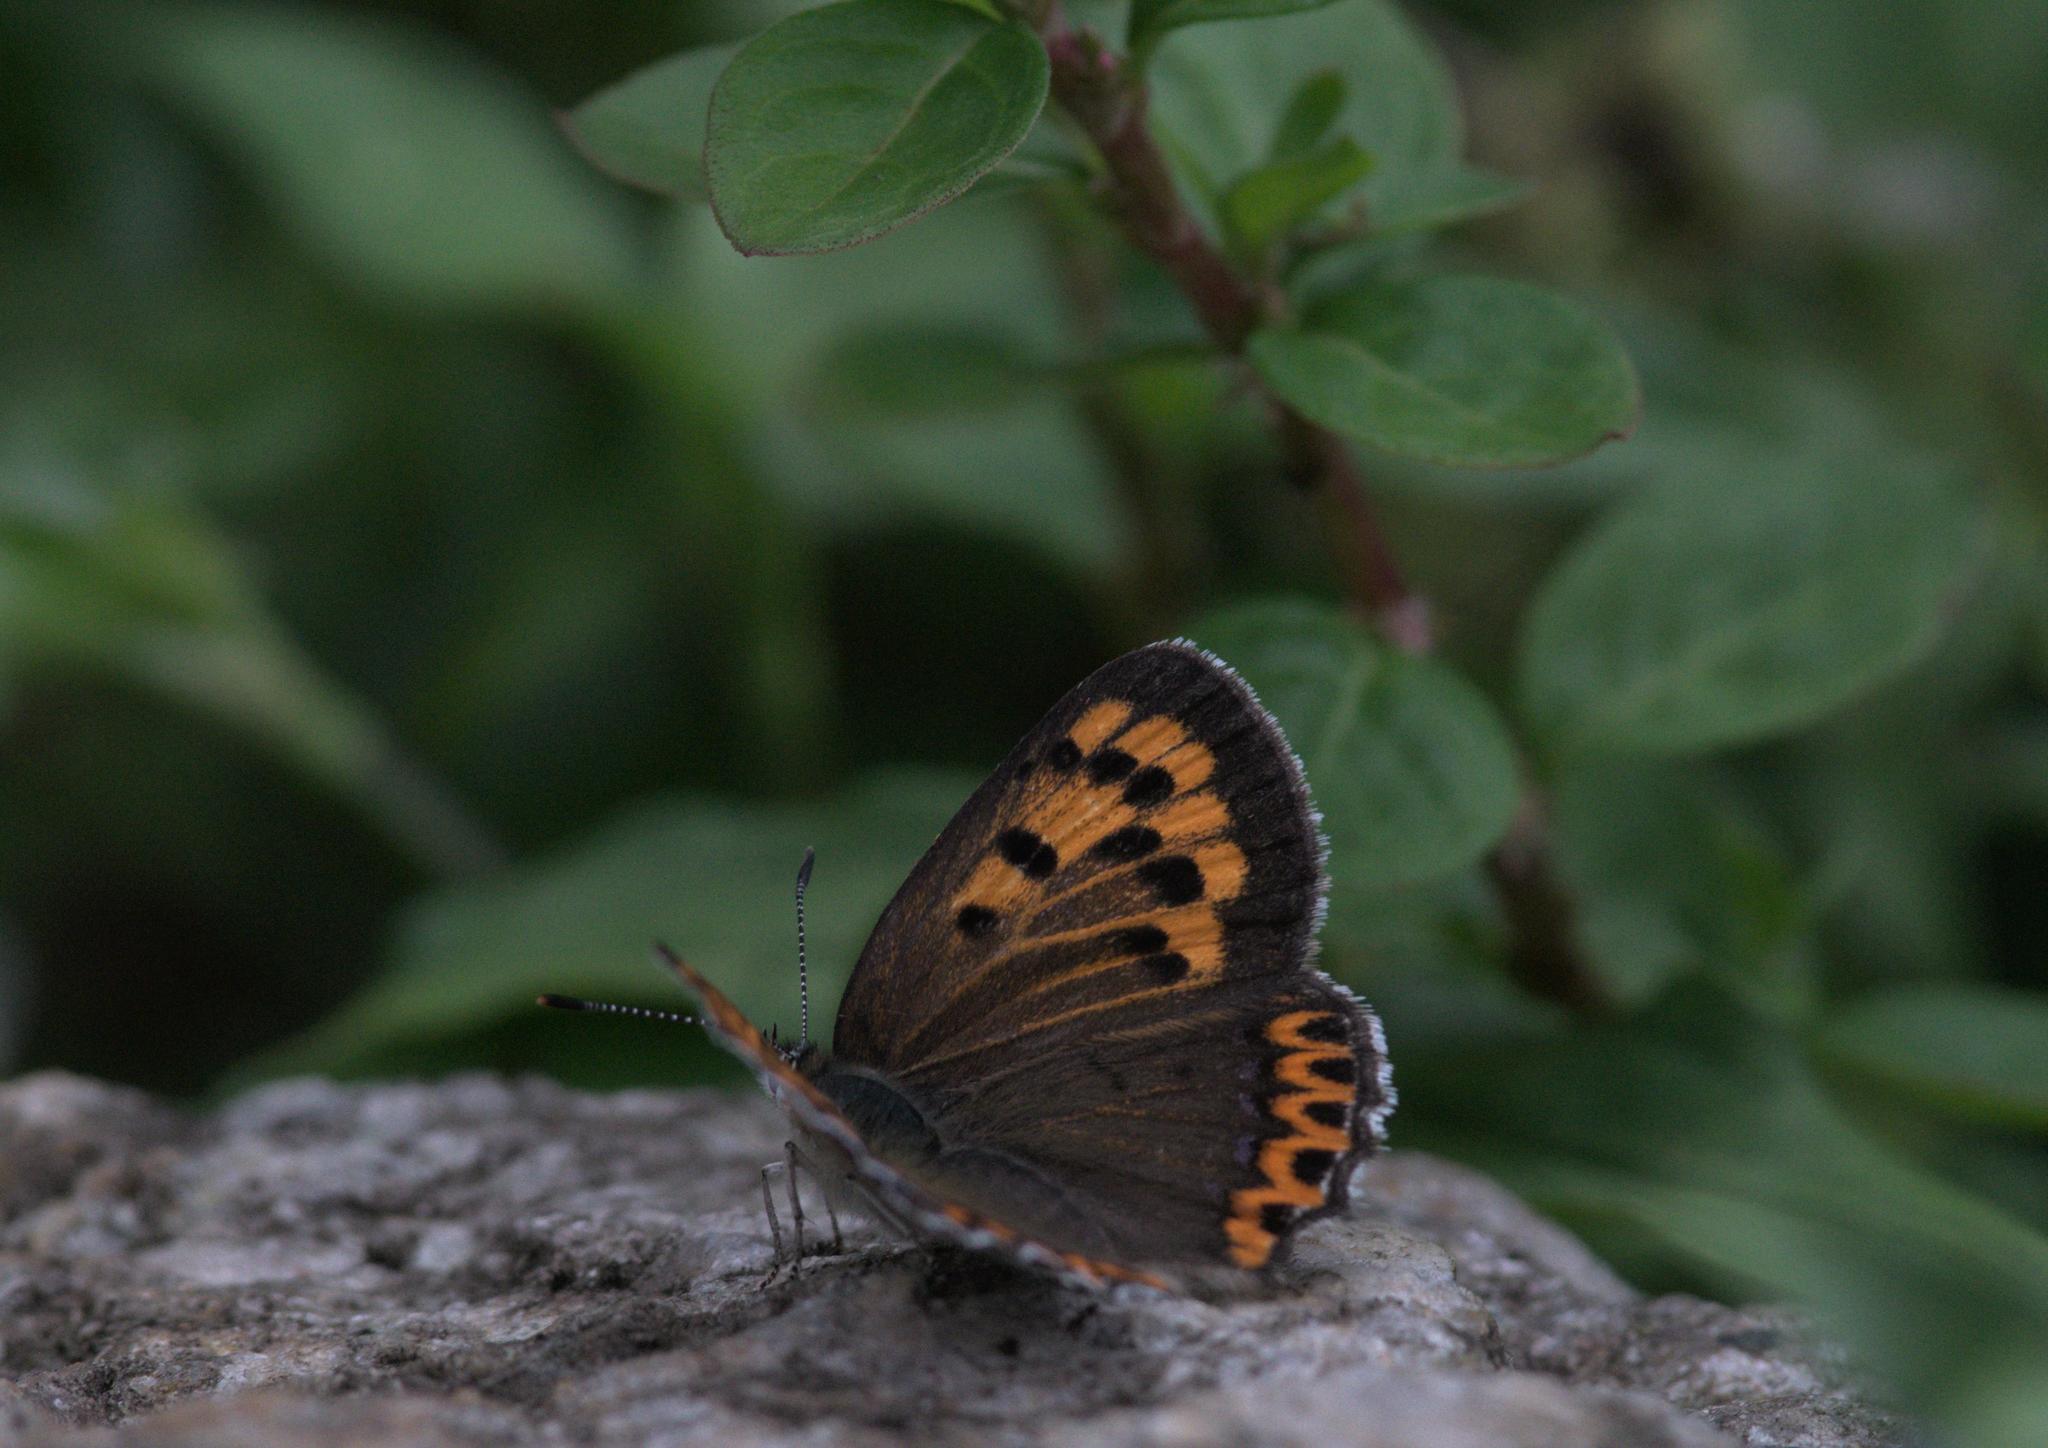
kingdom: Animalia
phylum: Arthropoda
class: Insecta
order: Lepidoptera
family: Lycaenidae
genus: Lycaena
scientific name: Lycaena panava
